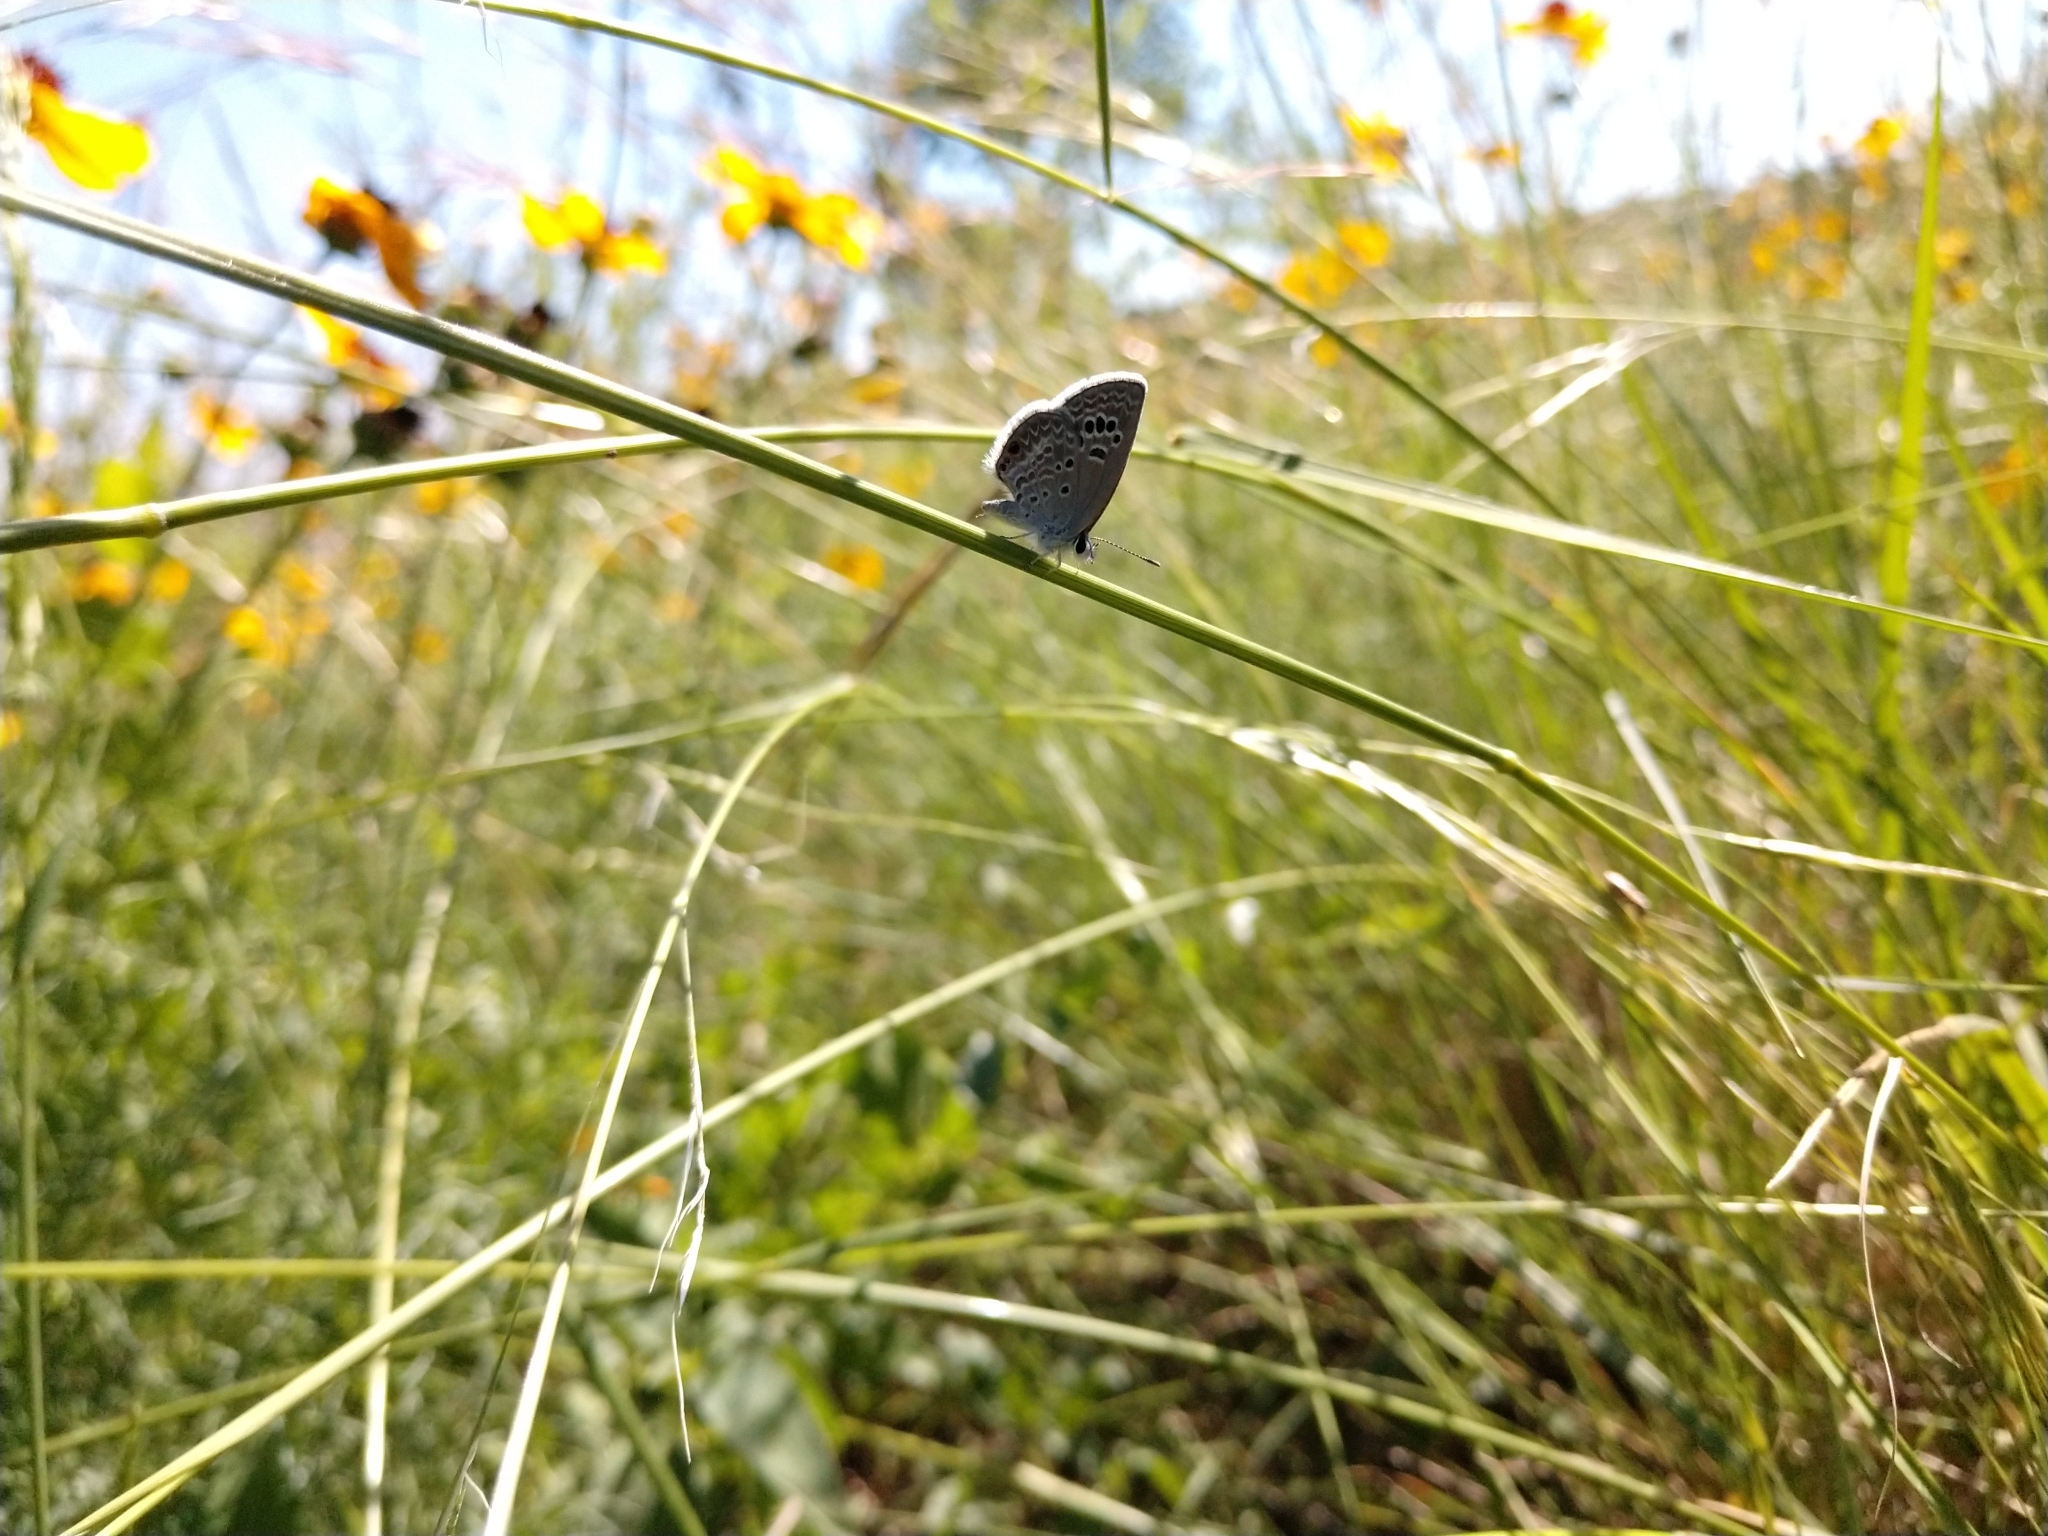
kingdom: Animalia
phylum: Arthropoda
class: Insecta
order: Lepidoptera
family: Lycaenidae
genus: Echinargus
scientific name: Echinargus isola
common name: Reakirt's blue
